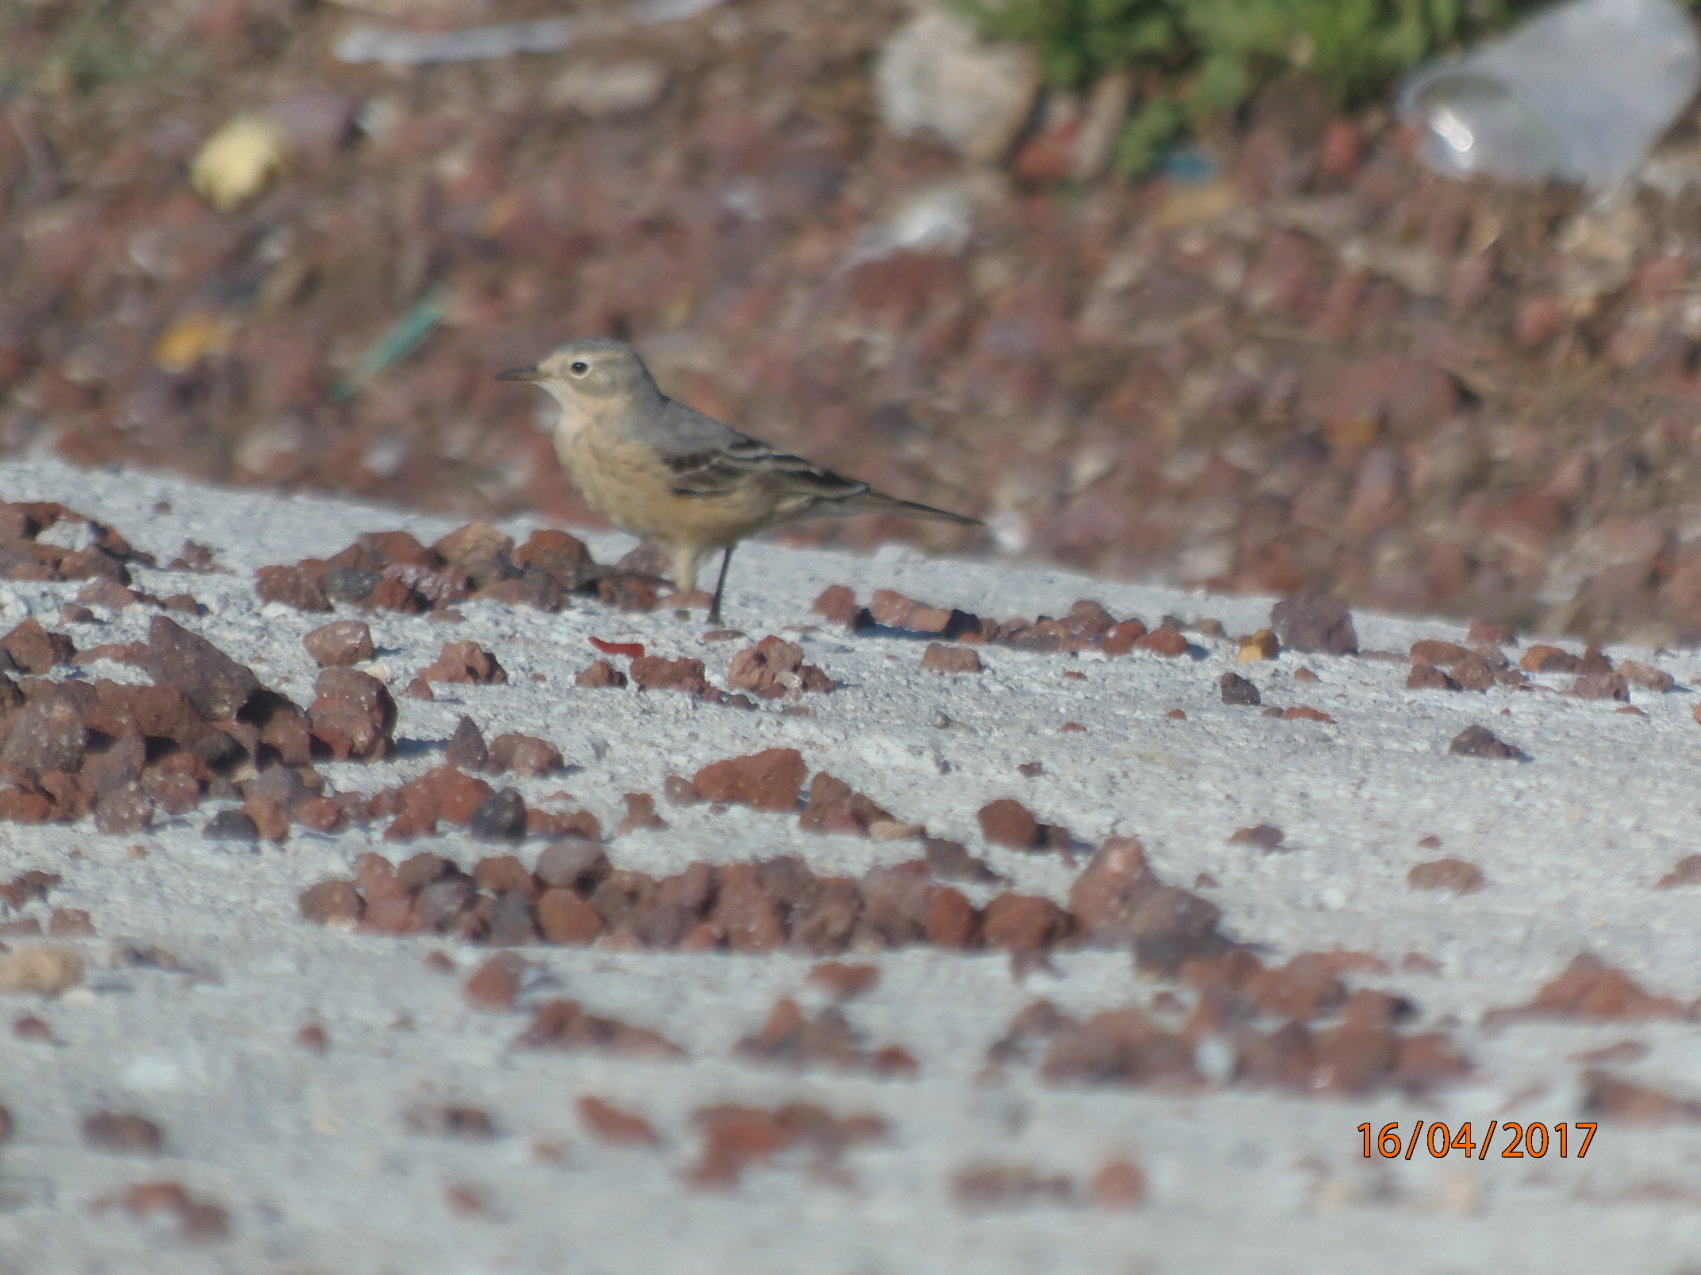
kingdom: Animalia
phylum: Chordata
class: Aves
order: Passeriformes
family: Motacillidae
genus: Anthus
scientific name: Anthus rubescens
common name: Buff-bellied pipit
